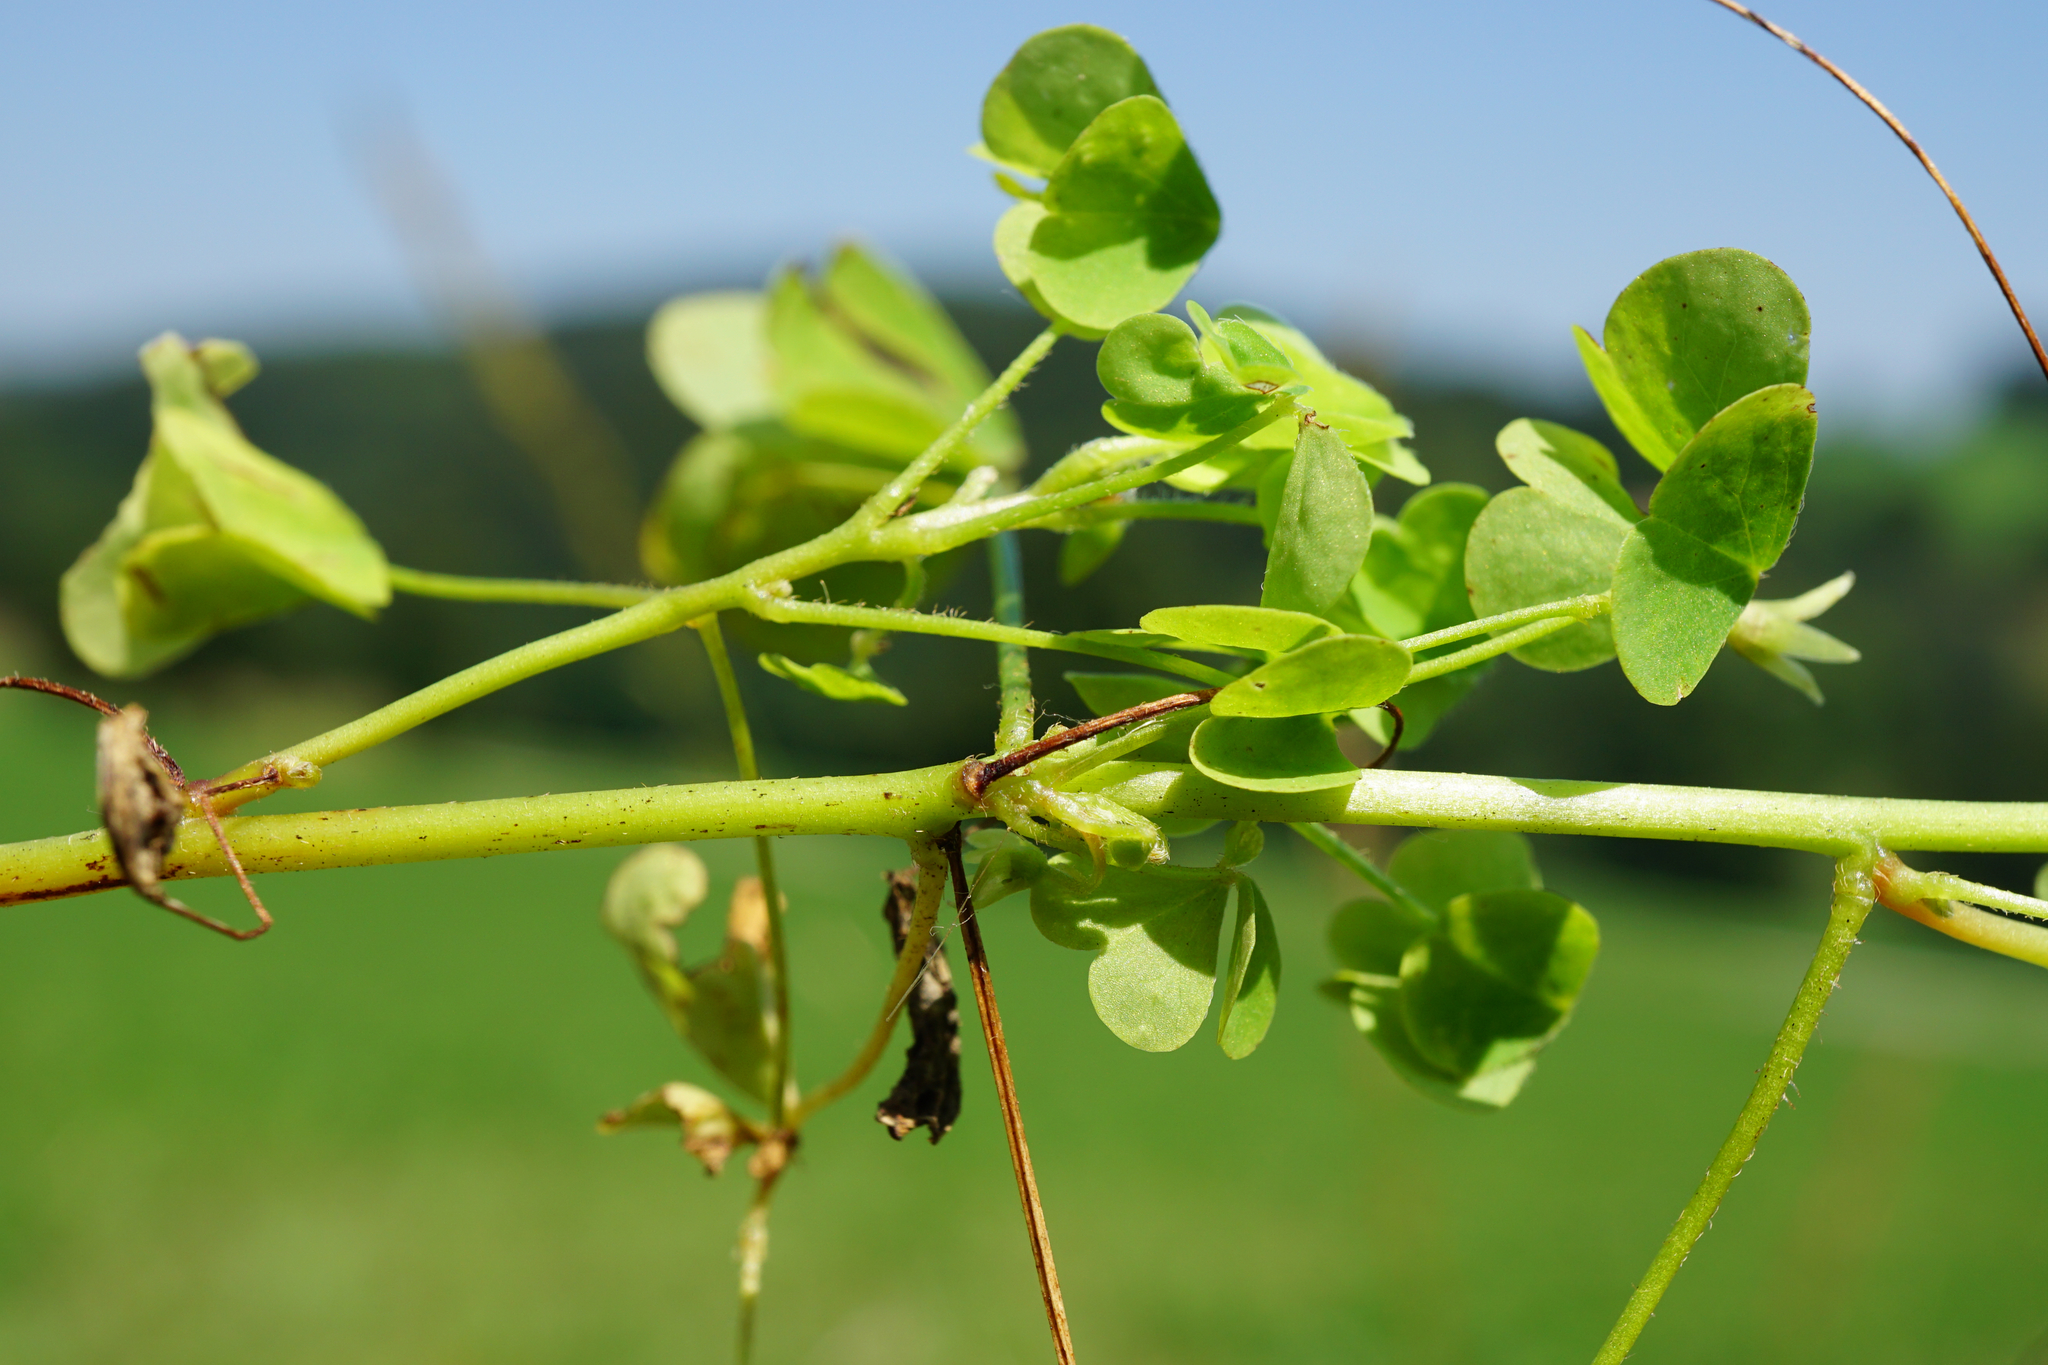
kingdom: Plantae
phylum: Tracheophyta
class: Magnoliopsida
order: Oxalidales
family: Oxalidaceae
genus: Oxalis
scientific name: Oxalis stricta
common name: Upright yellow-sorrel
